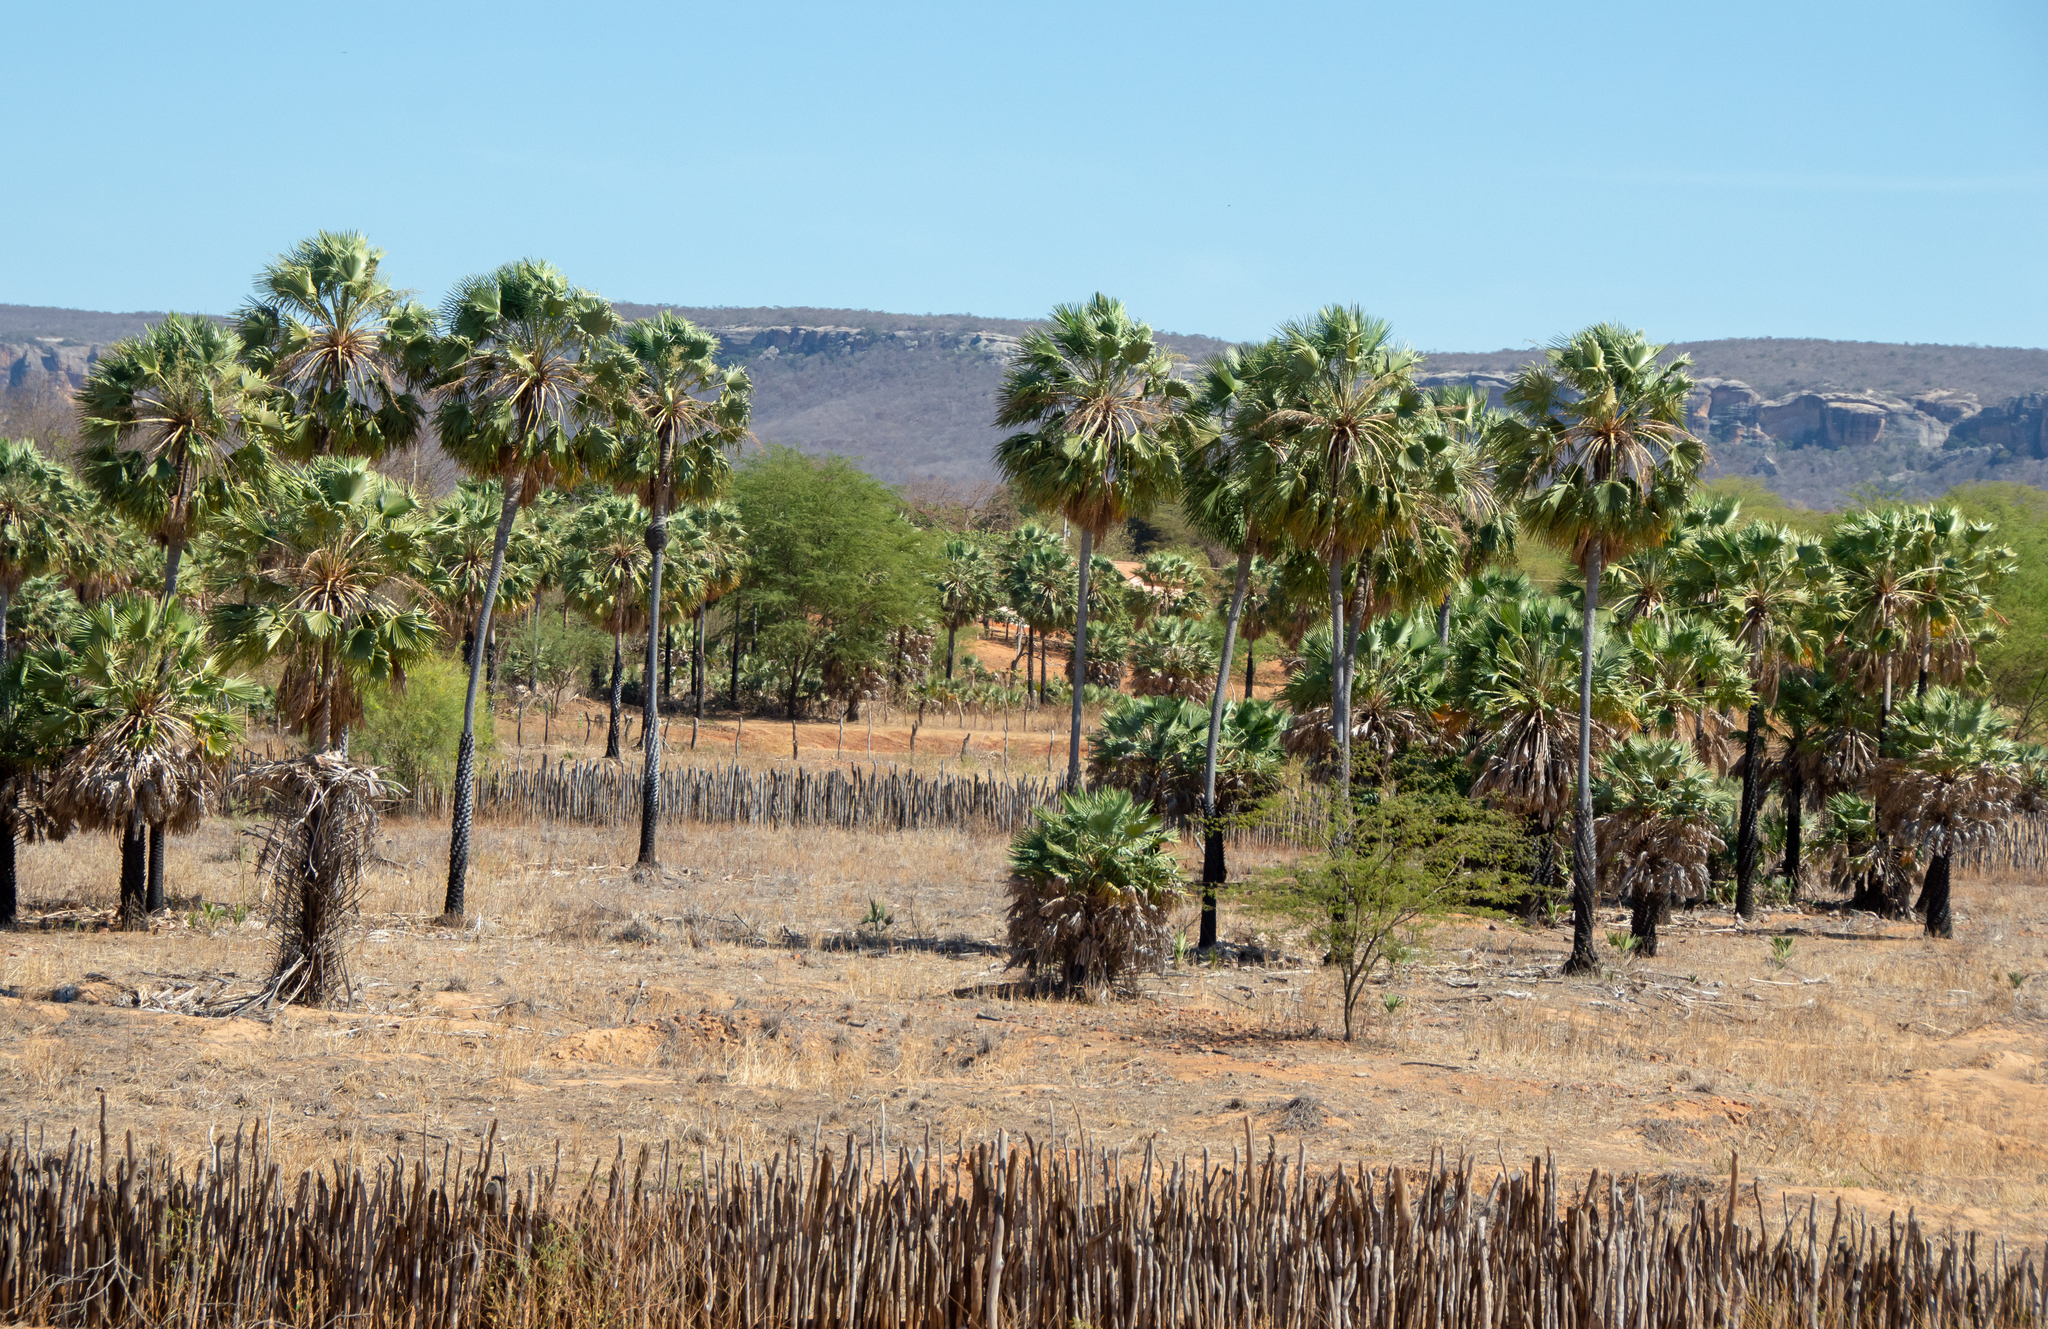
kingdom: Plantae
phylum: Tracheophyta
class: Liliopsida
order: Arecales
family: Arecaceae
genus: Copernicia
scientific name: Copernicia prunifera
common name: Carnauba palm
